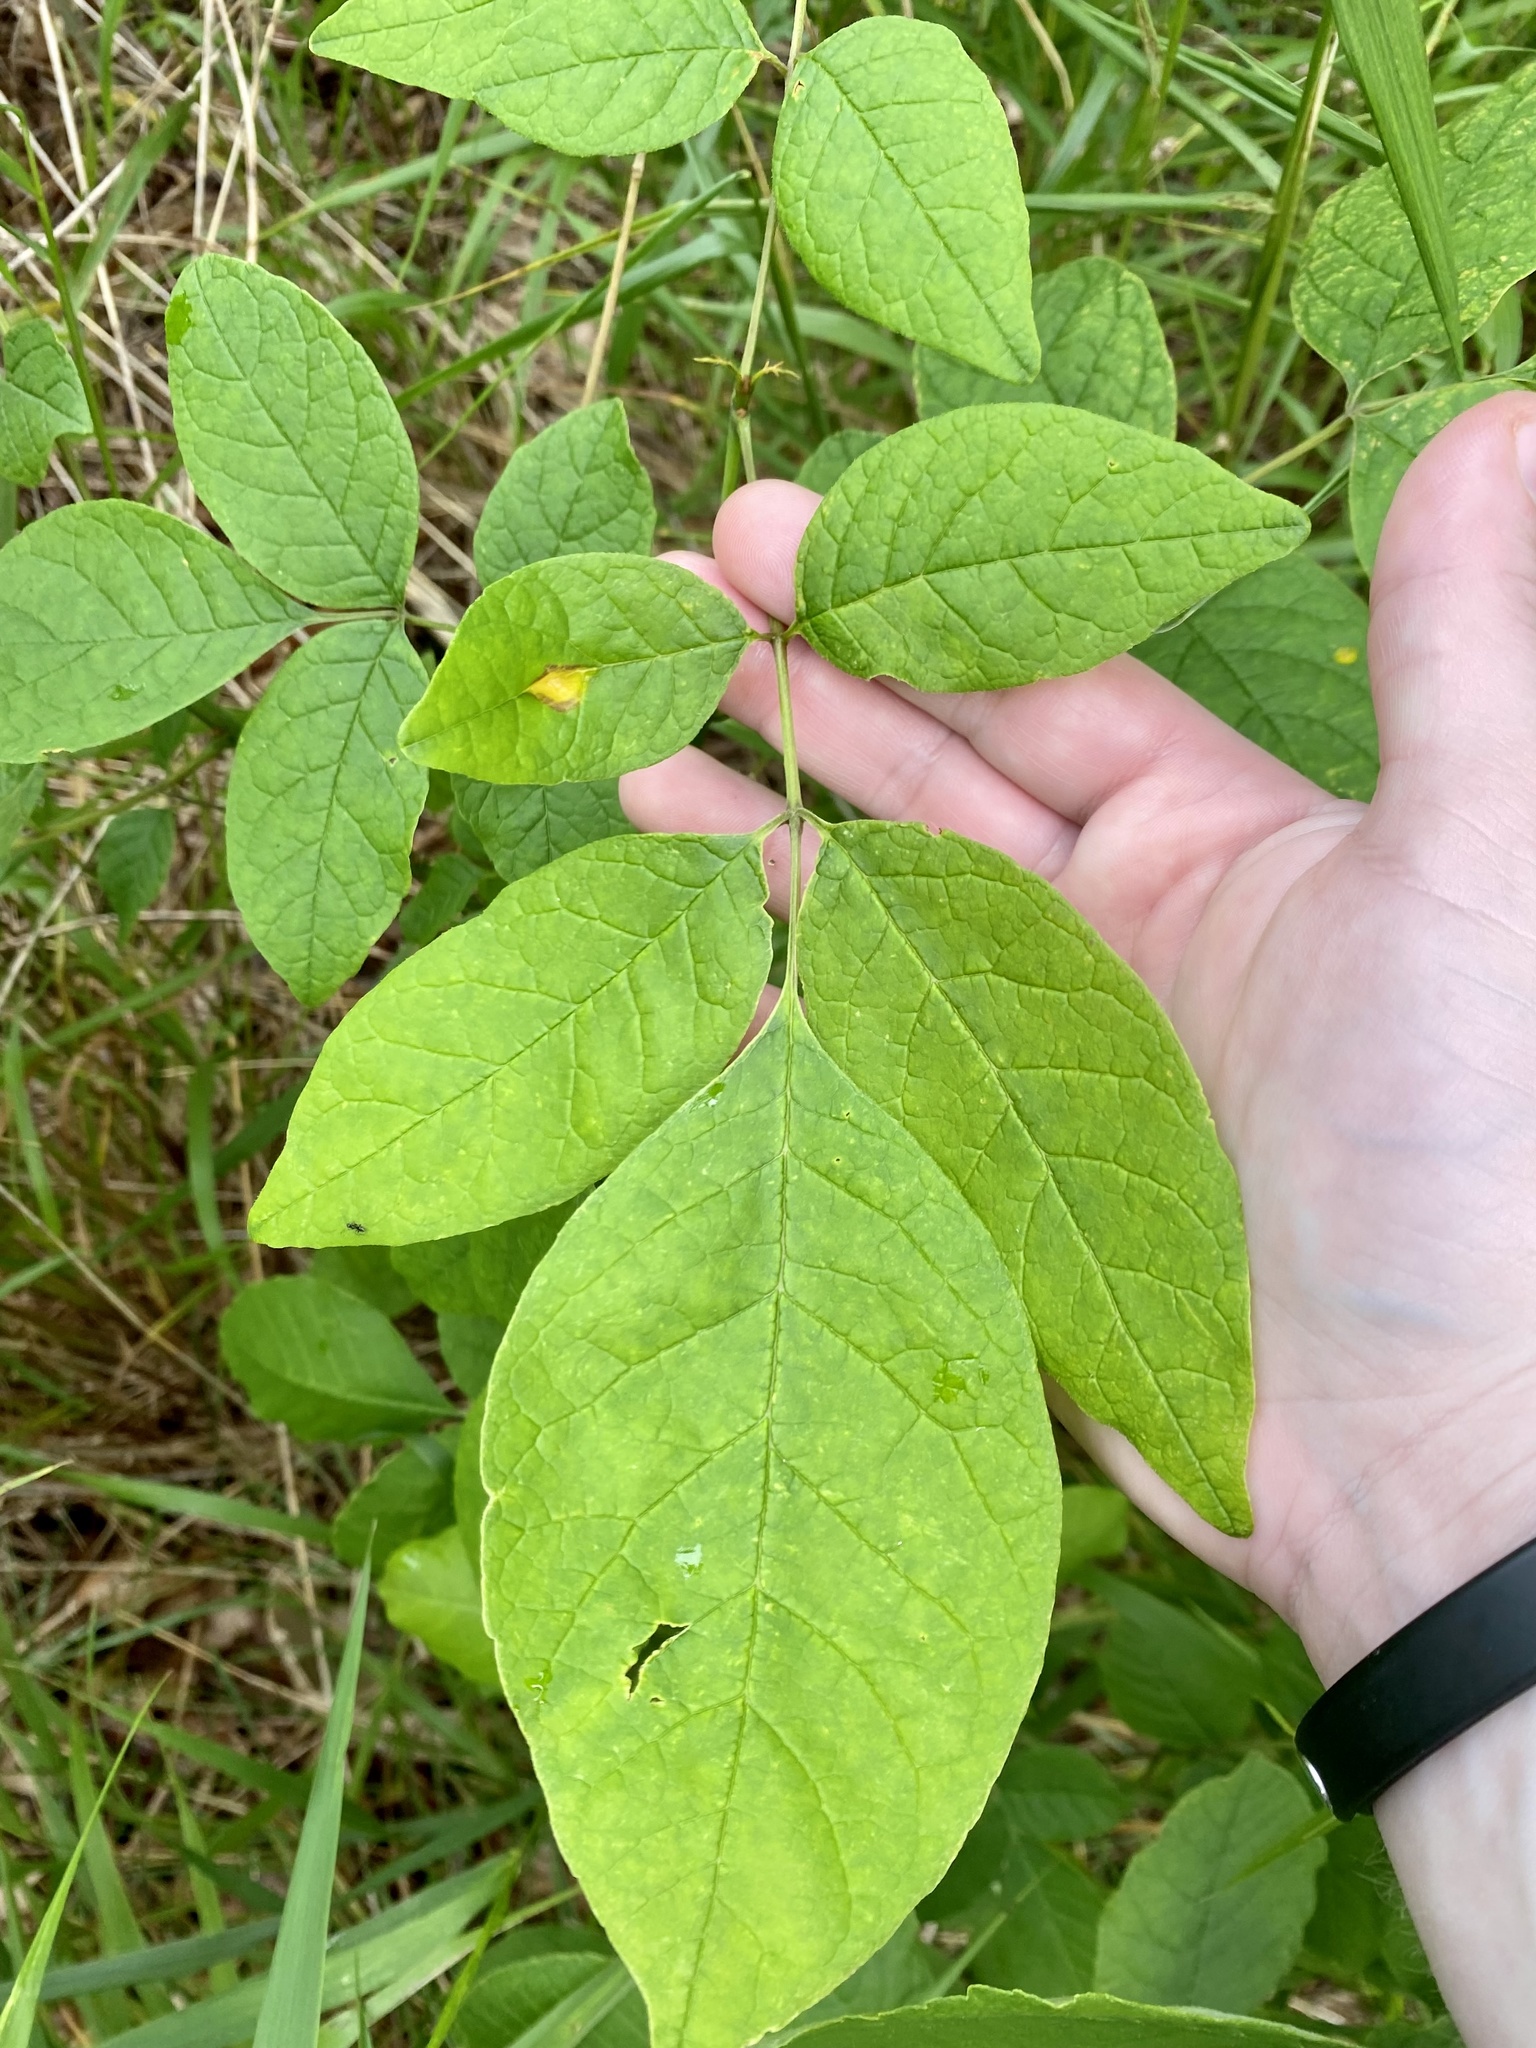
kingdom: Fungi
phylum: Basidiomycota
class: Pucciniomycetes
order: Pucciniales
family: Pucciniaceae
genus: Puccinia
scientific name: Puccinia sparganioidis
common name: Ash rust
